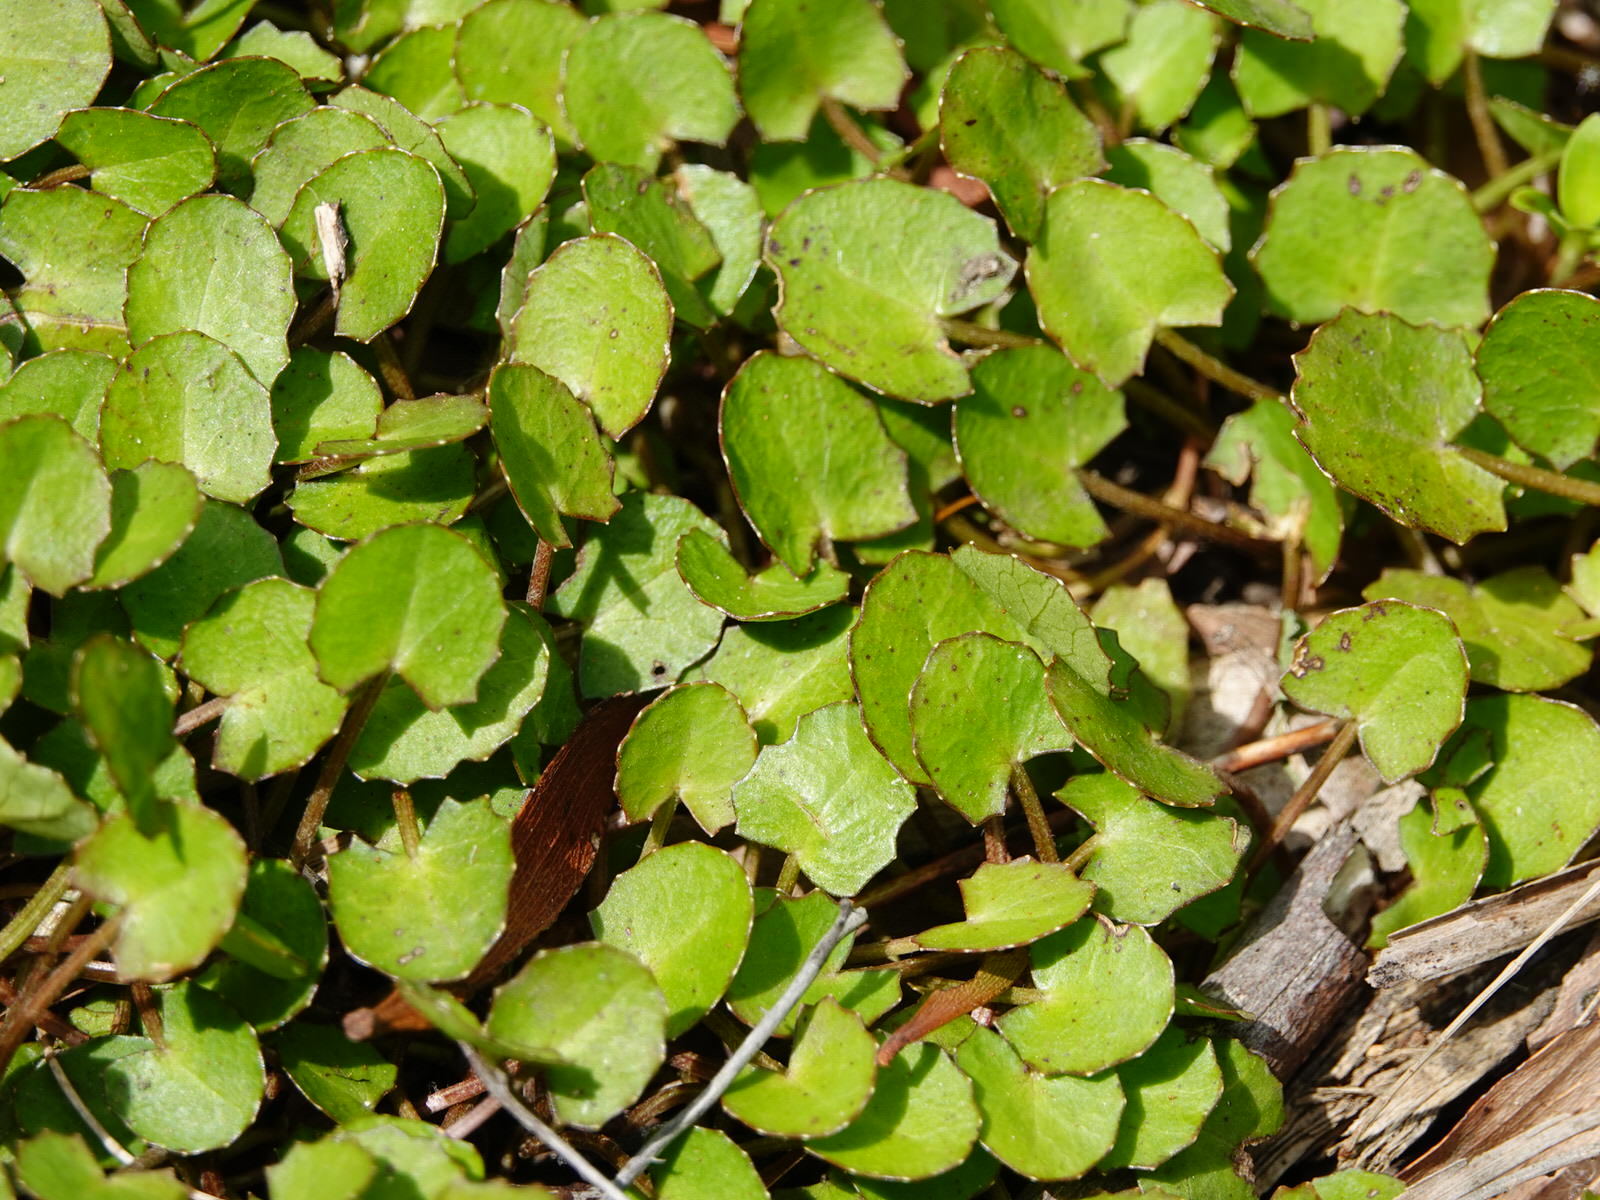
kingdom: Plantae
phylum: Tracheophyta
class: Magnoliopsida
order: Apiales
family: Apiaceae
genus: Centella
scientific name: Centella uniflora
